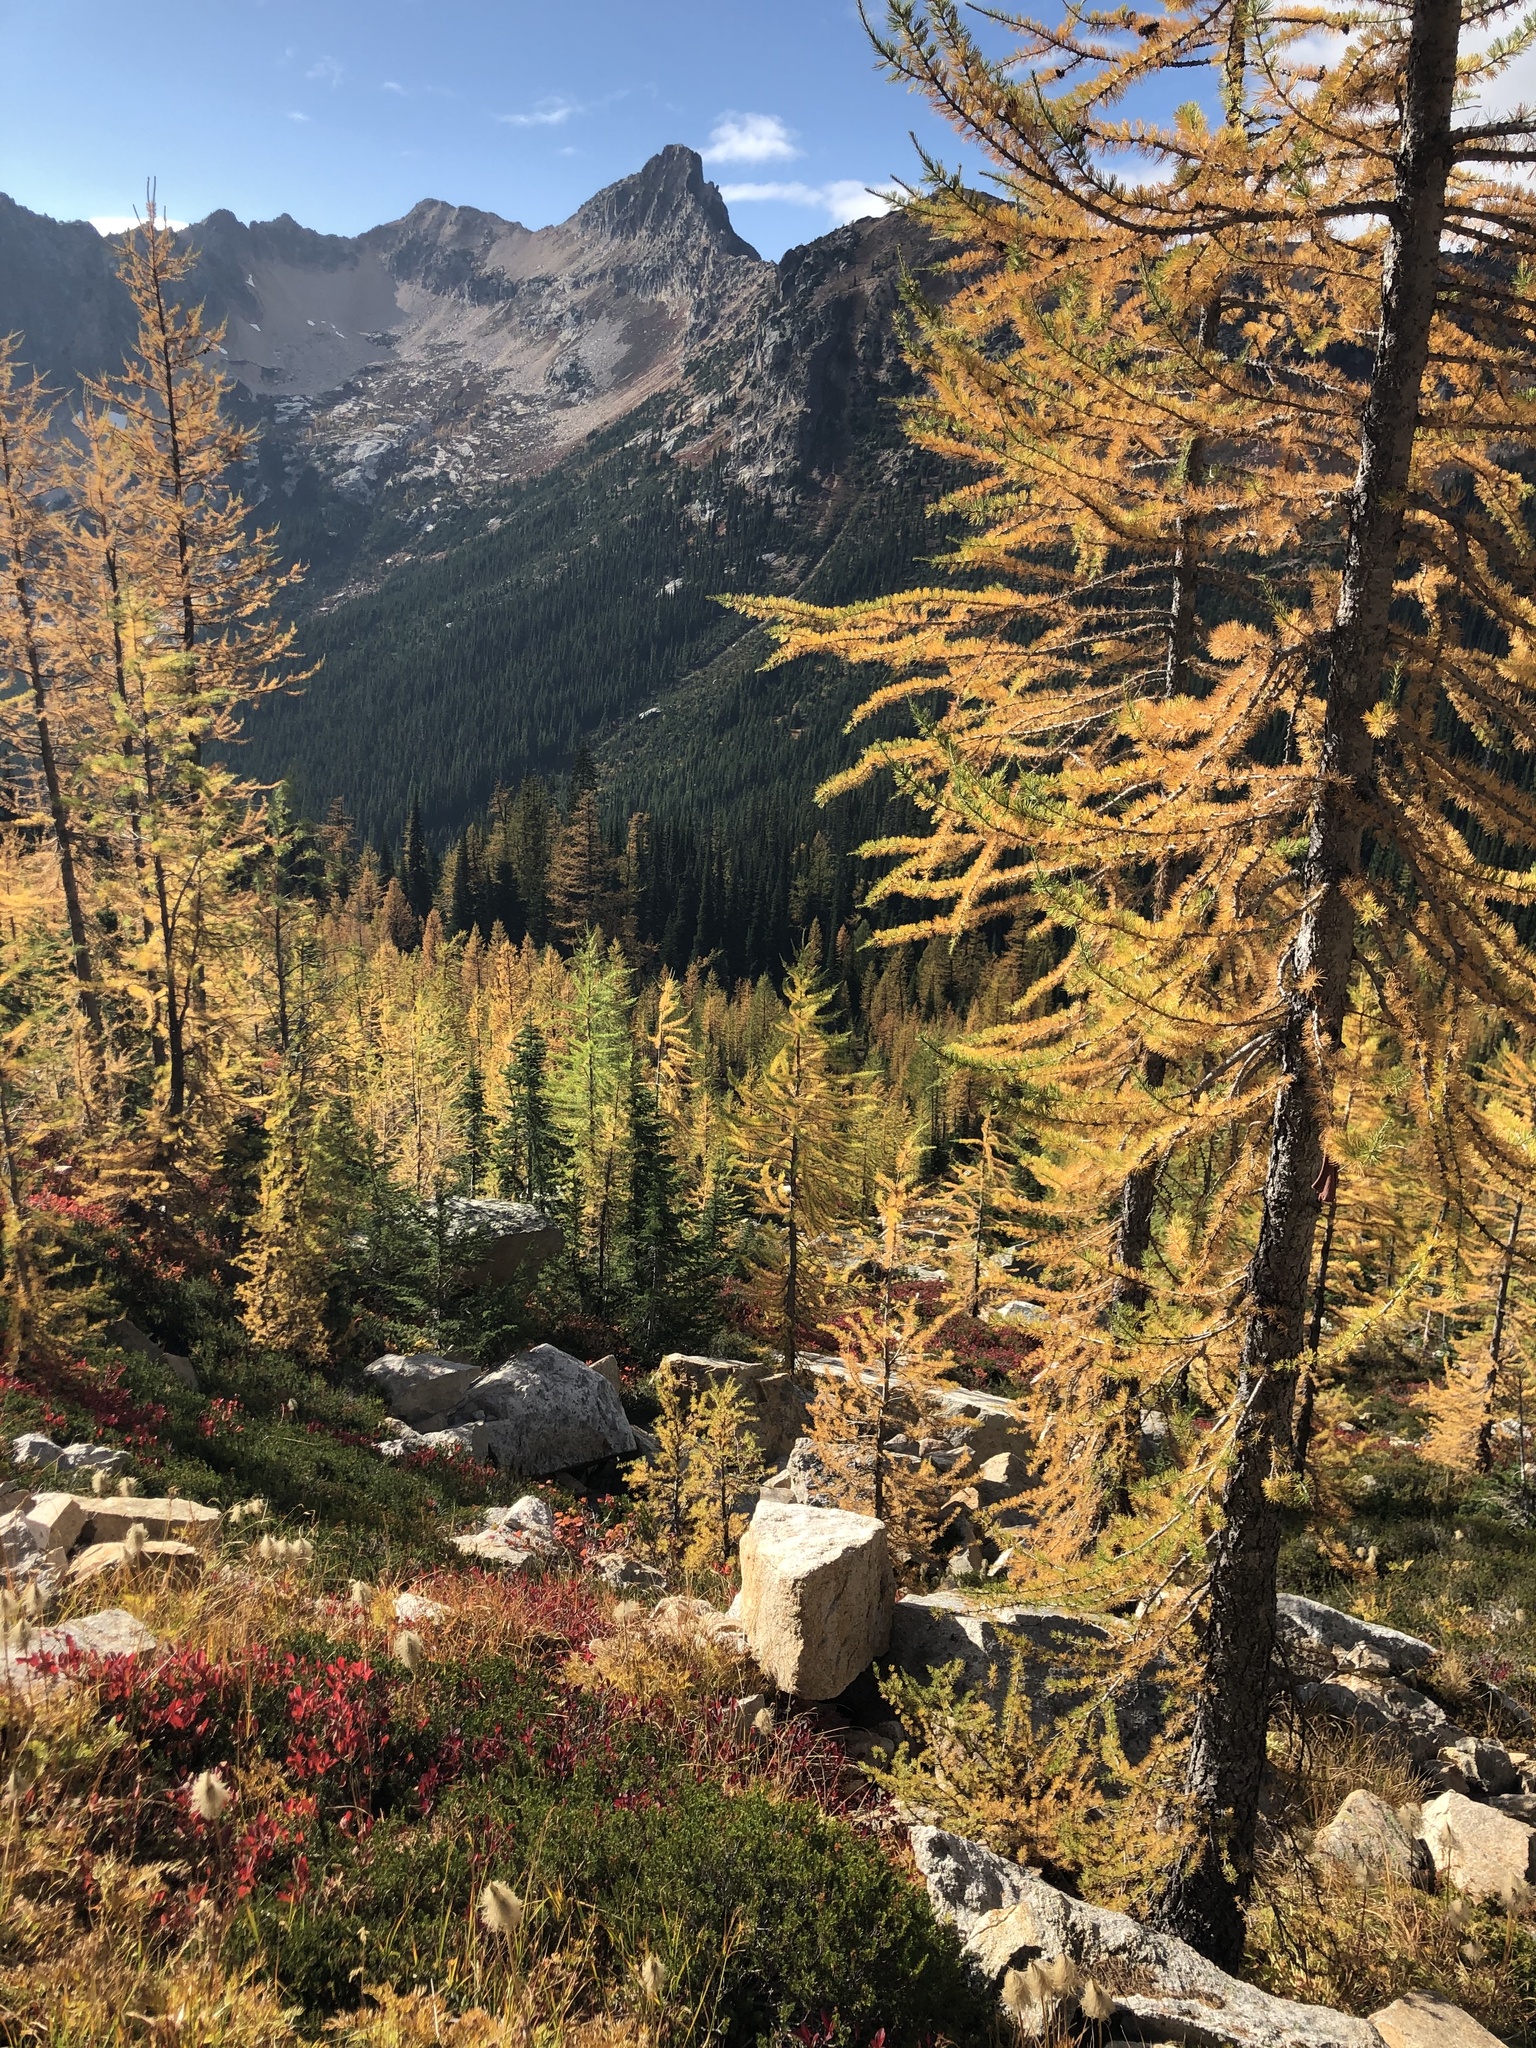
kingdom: Plantae
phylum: Tracheophyta
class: Pinopsida
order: Pinales
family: Pinaceae
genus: Larix
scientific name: Larix lyallii
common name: Alpine larch
